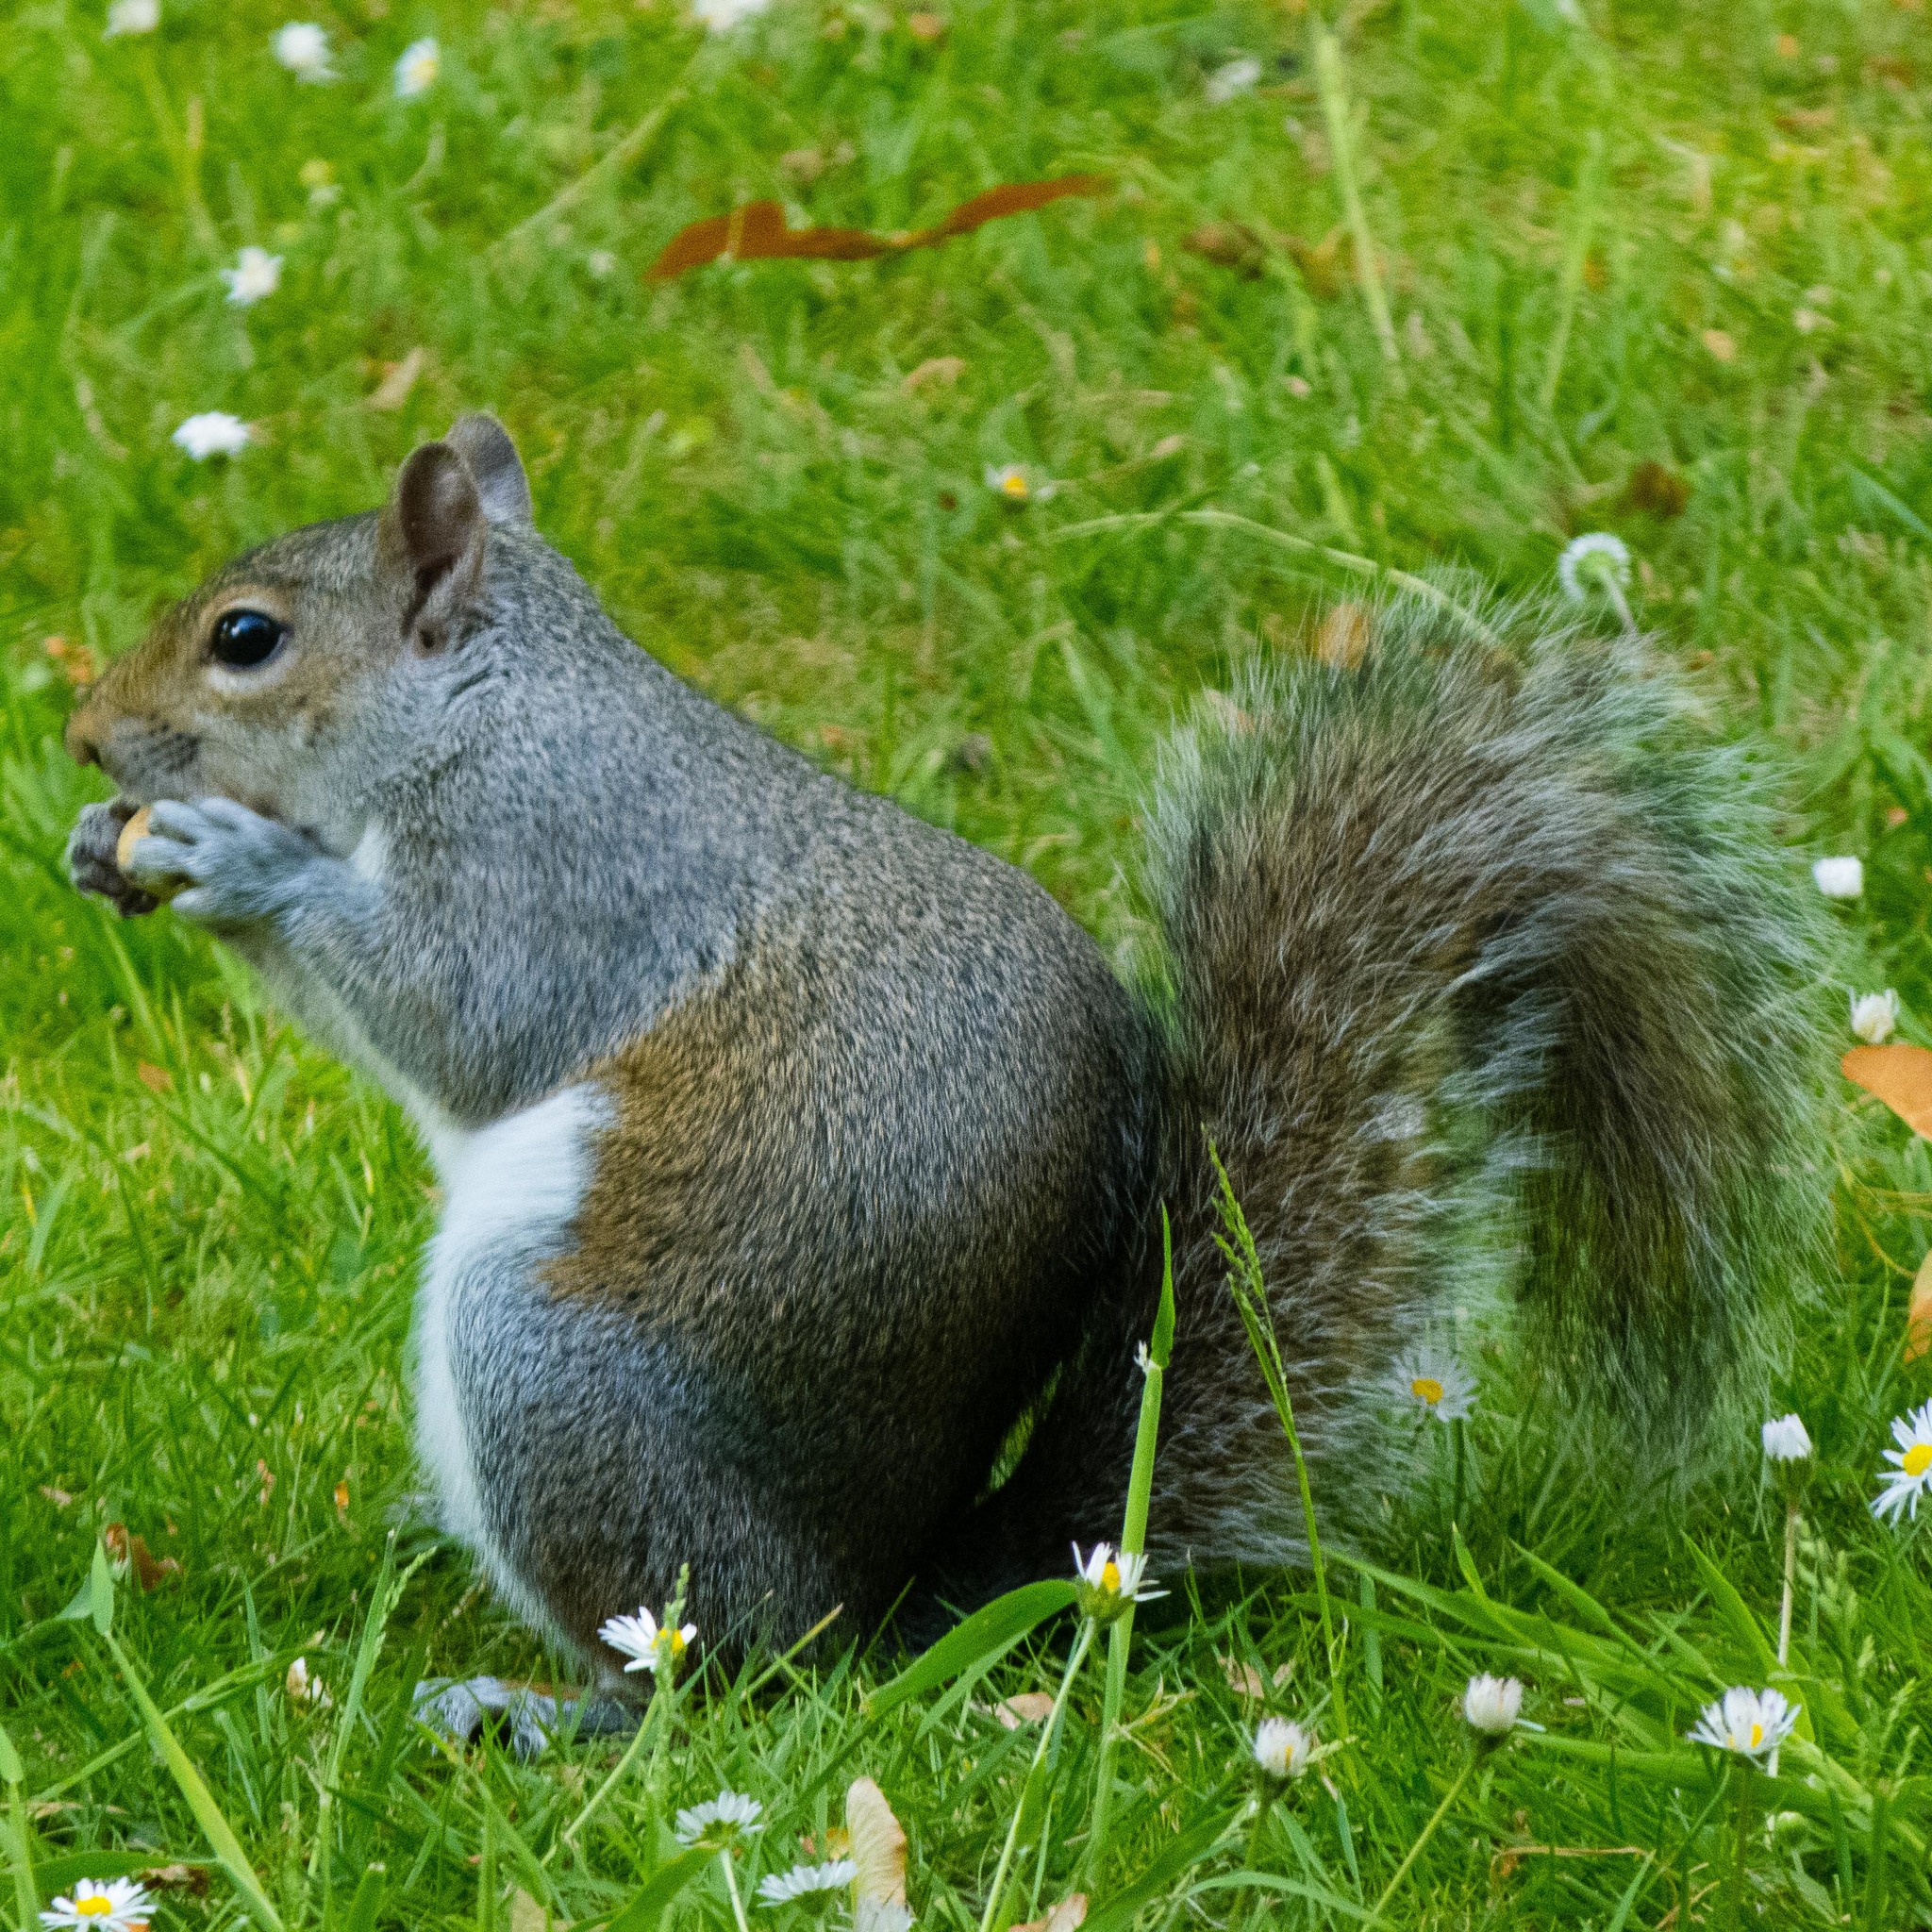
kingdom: Animalia
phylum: Chordata
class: Mammalia
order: Rodentia
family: Sciuridae
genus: Sciurus
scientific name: Sciurus carolinensis
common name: Eastern gray squirrel
